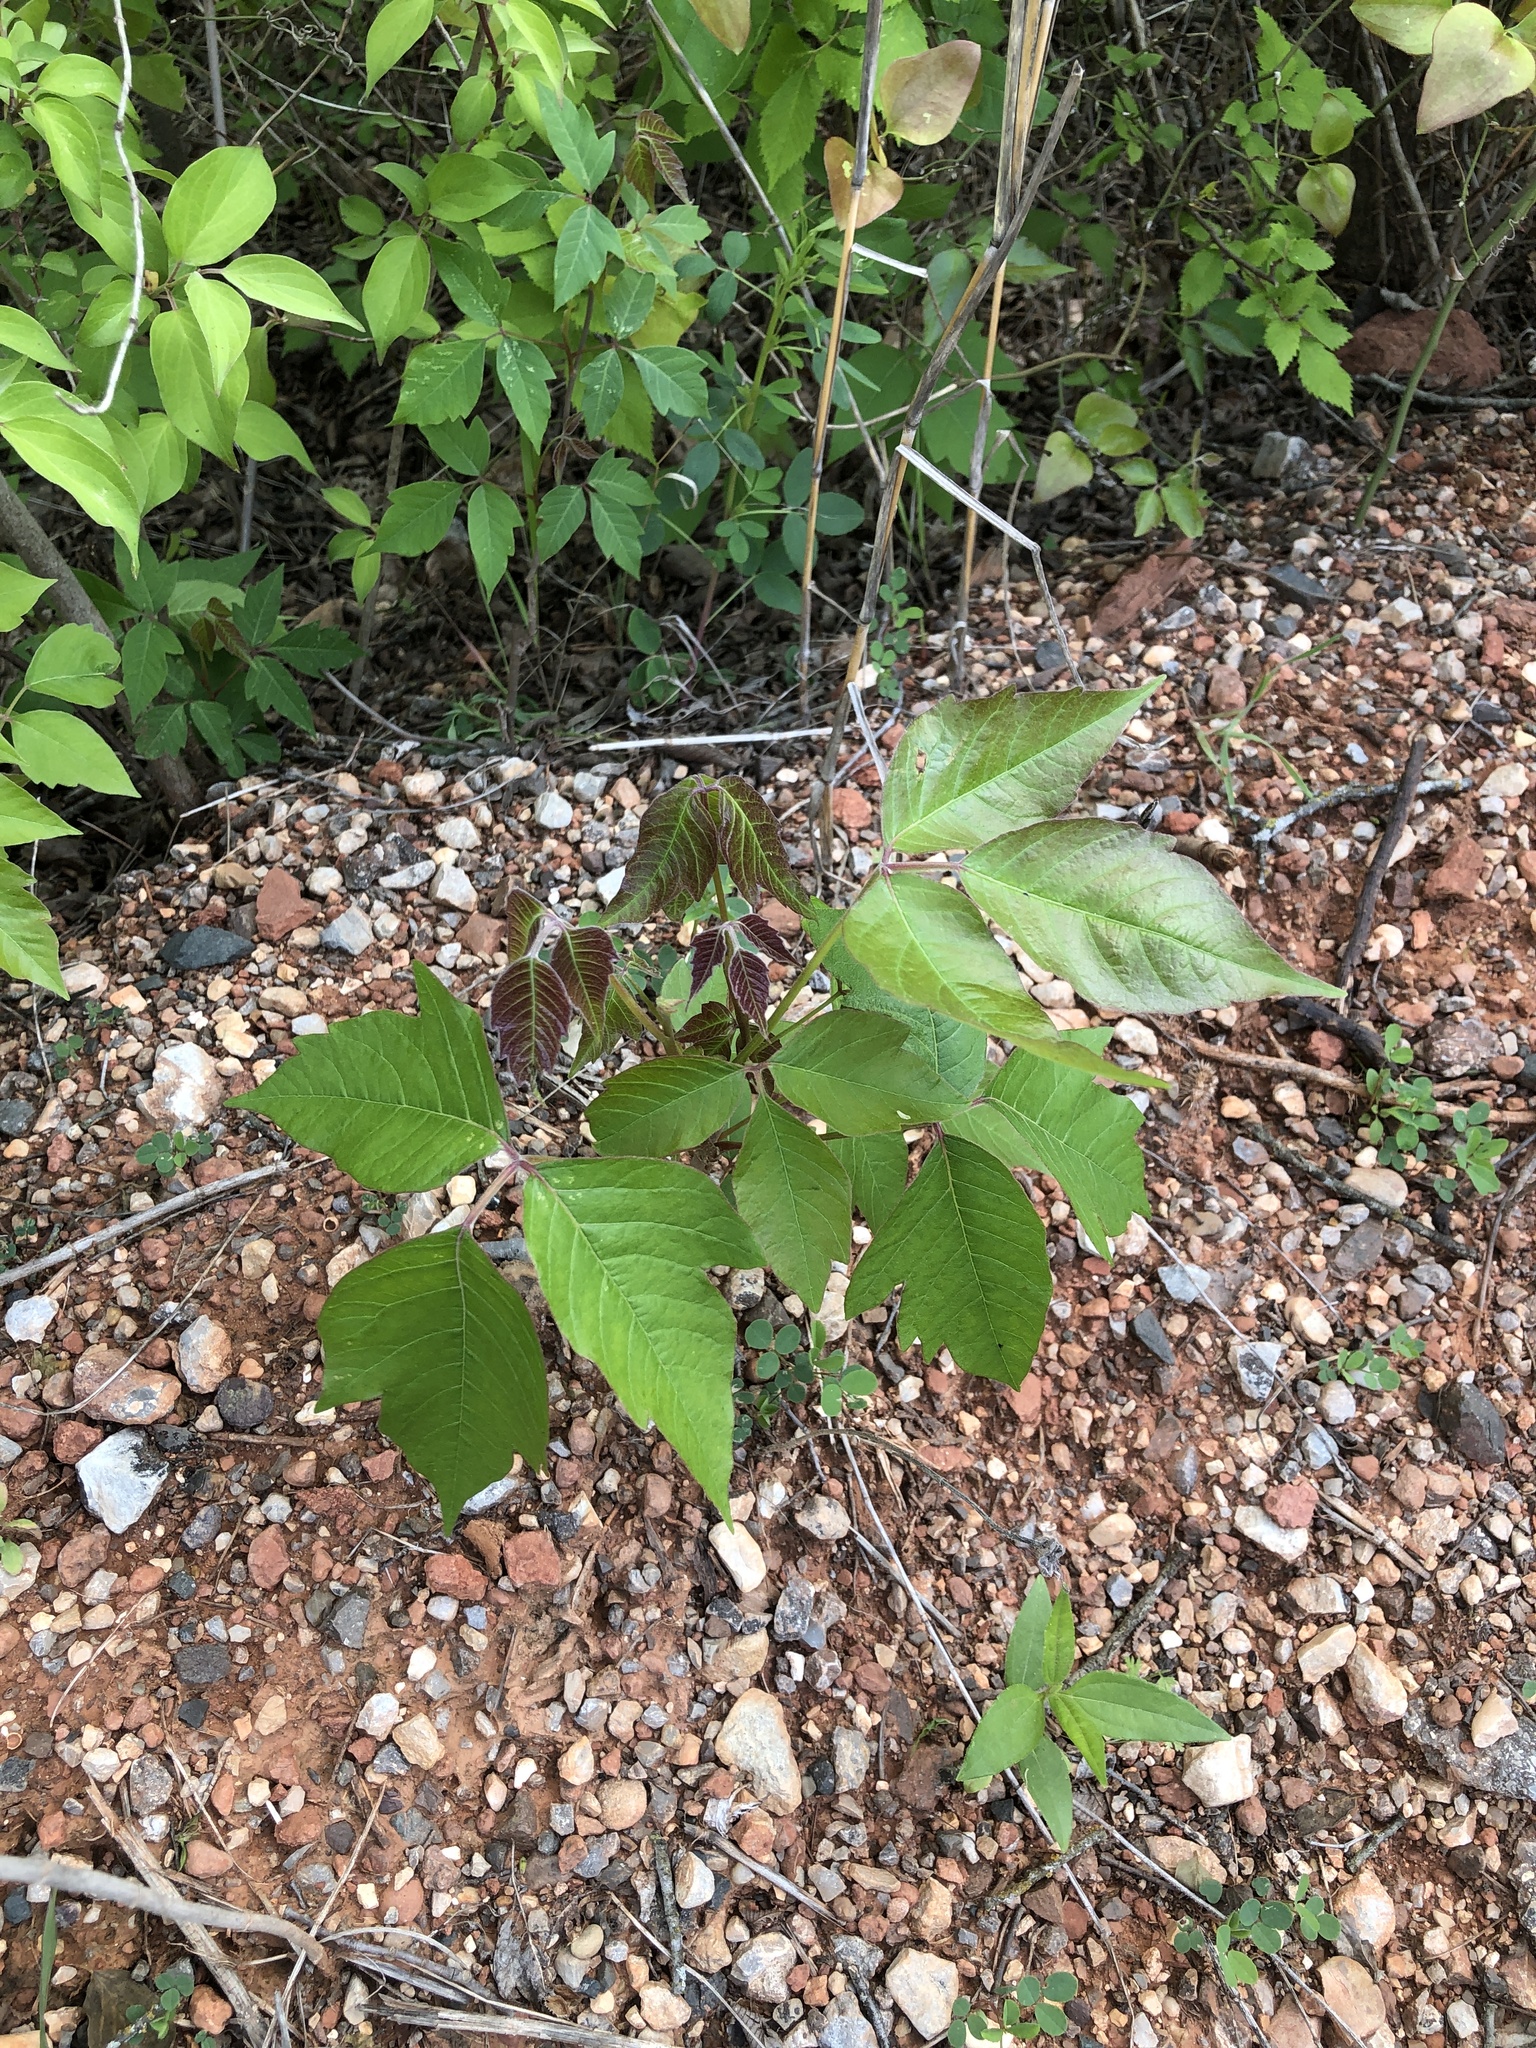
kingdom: Plantae
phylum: Tracheophyta
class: Magnoliopsida
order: Sapindales
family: Anacardiaceae
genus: Toxicodendron
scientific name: Toxicodendron radicans
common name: Poison ivy
